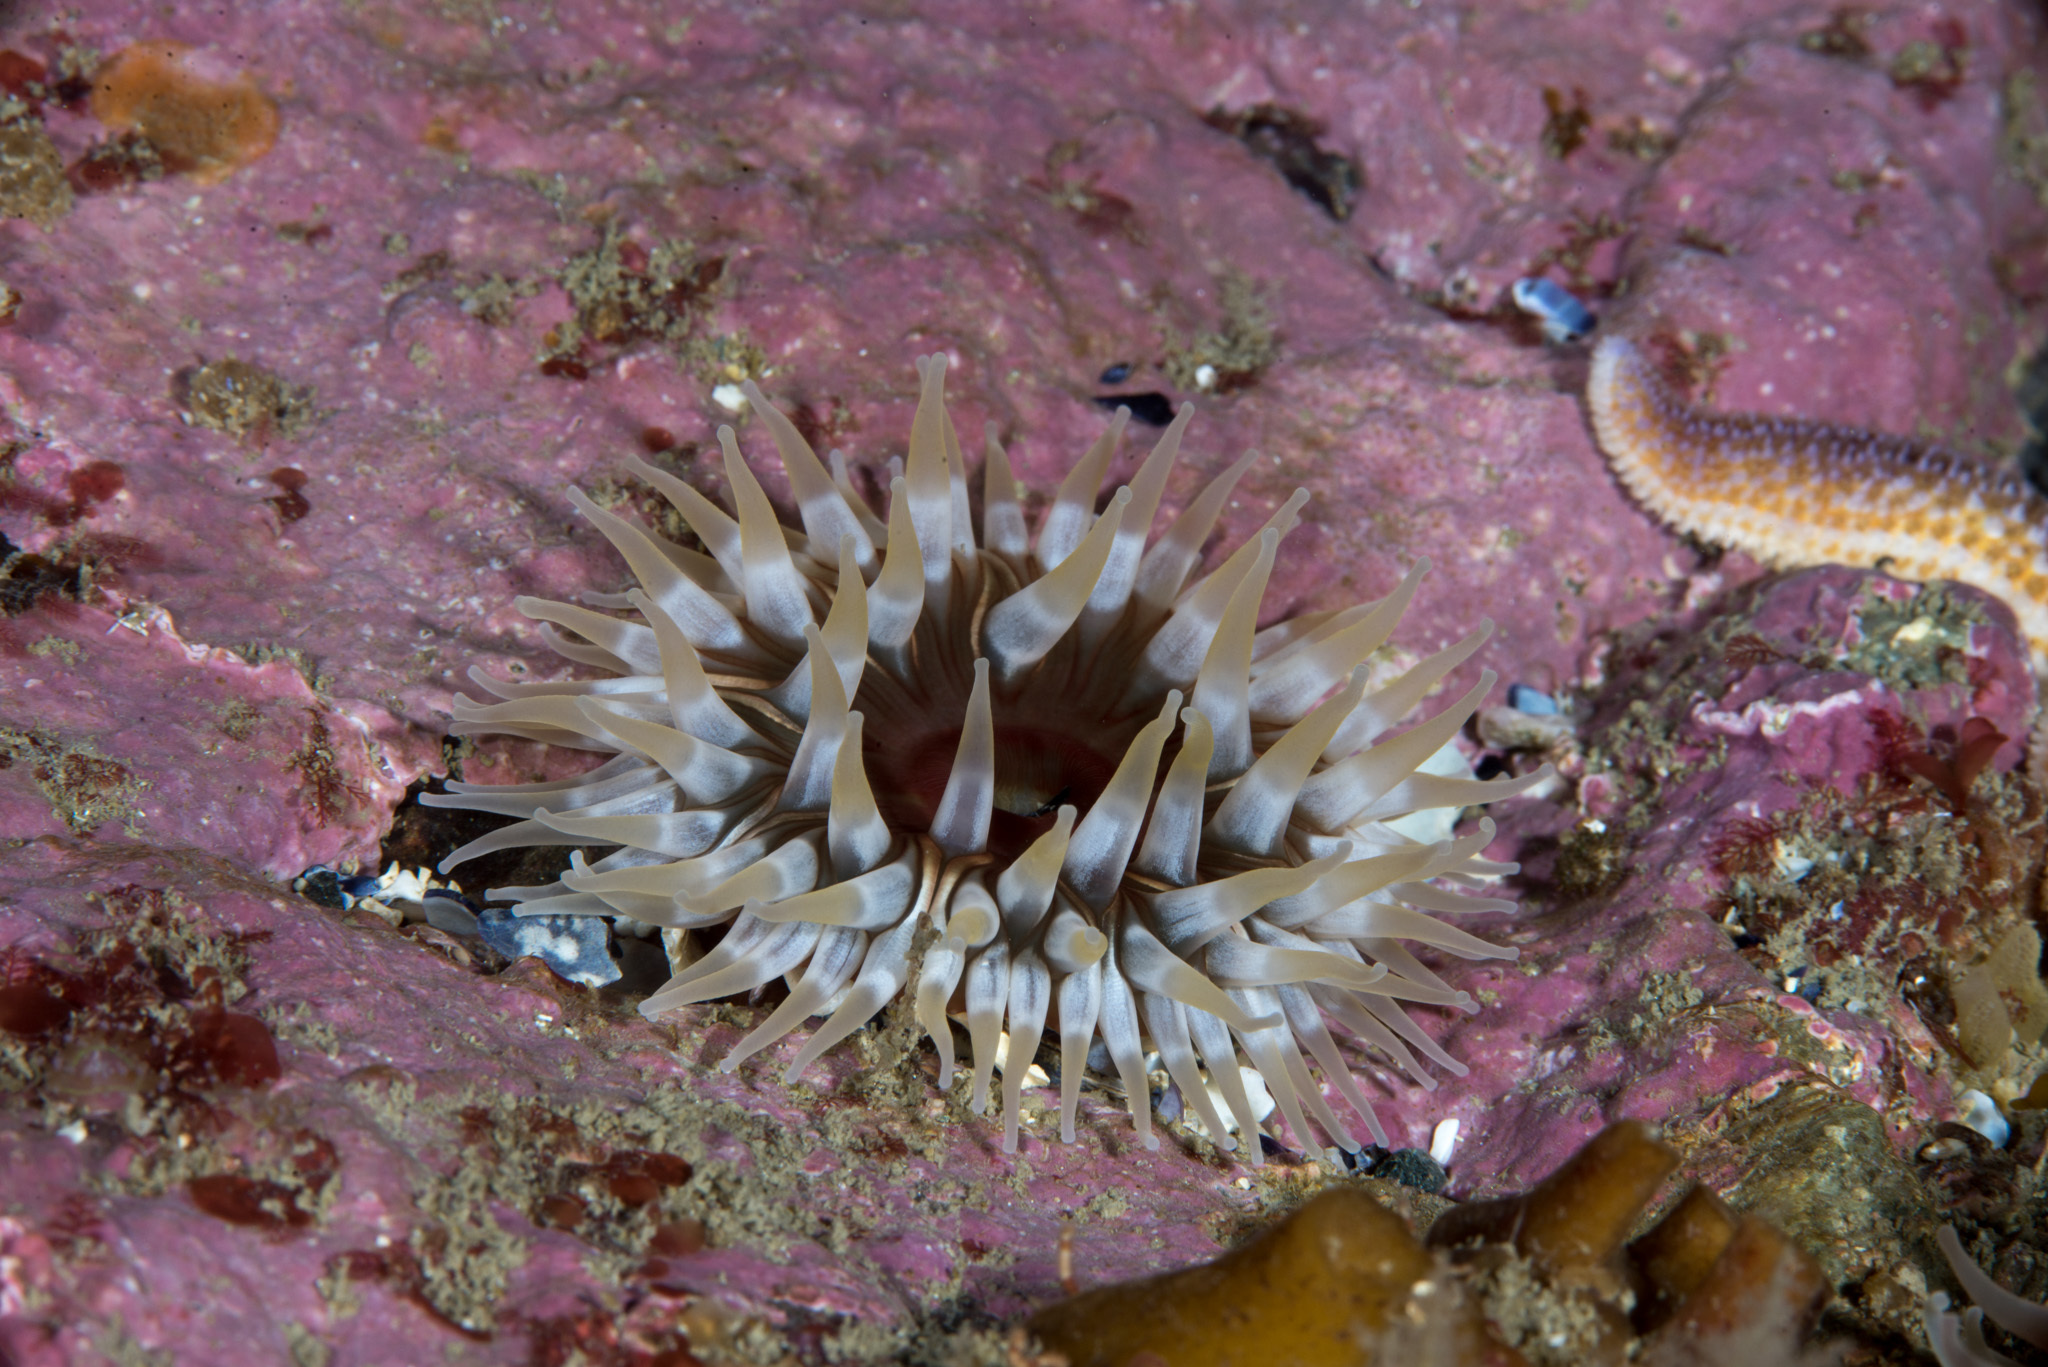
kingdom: Animalia
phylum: Cnidaria
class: Anthozoa
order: Actiniaria
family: Actiniidae
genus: Urticina
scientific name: Urticina felina
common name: Dahlia anemone
